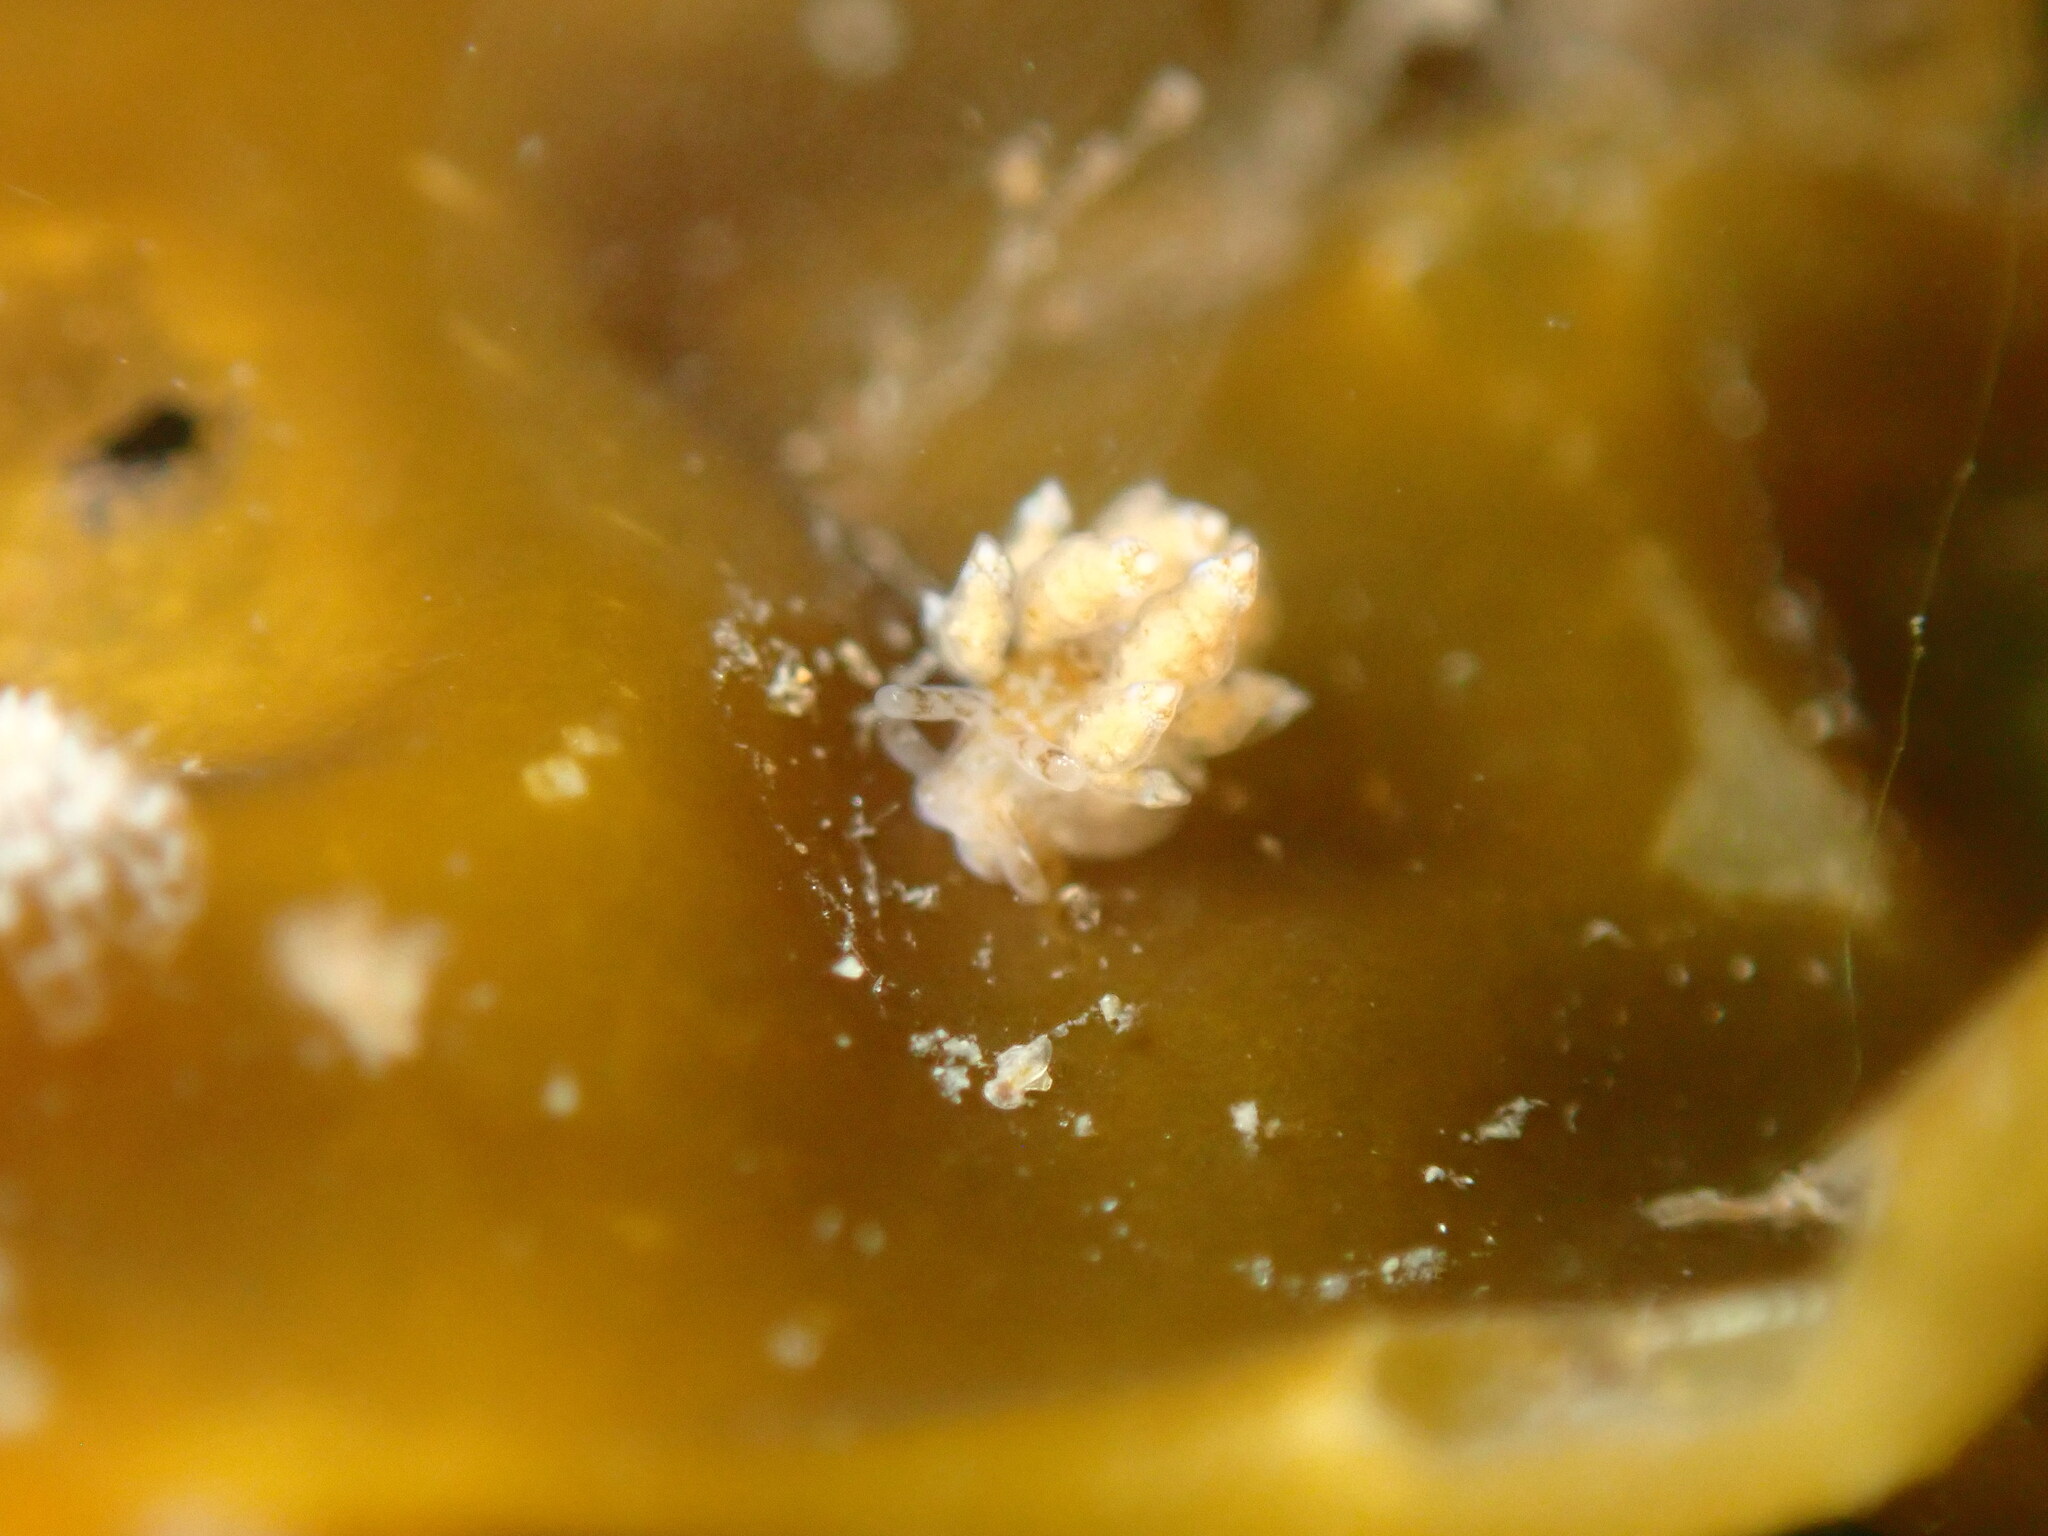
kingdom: Animalia
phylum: Mollusca
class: Gastropoda
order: Nudibranchia
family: Eubranchidae
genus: Eubranchus
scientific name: Eubranchus rustyus
